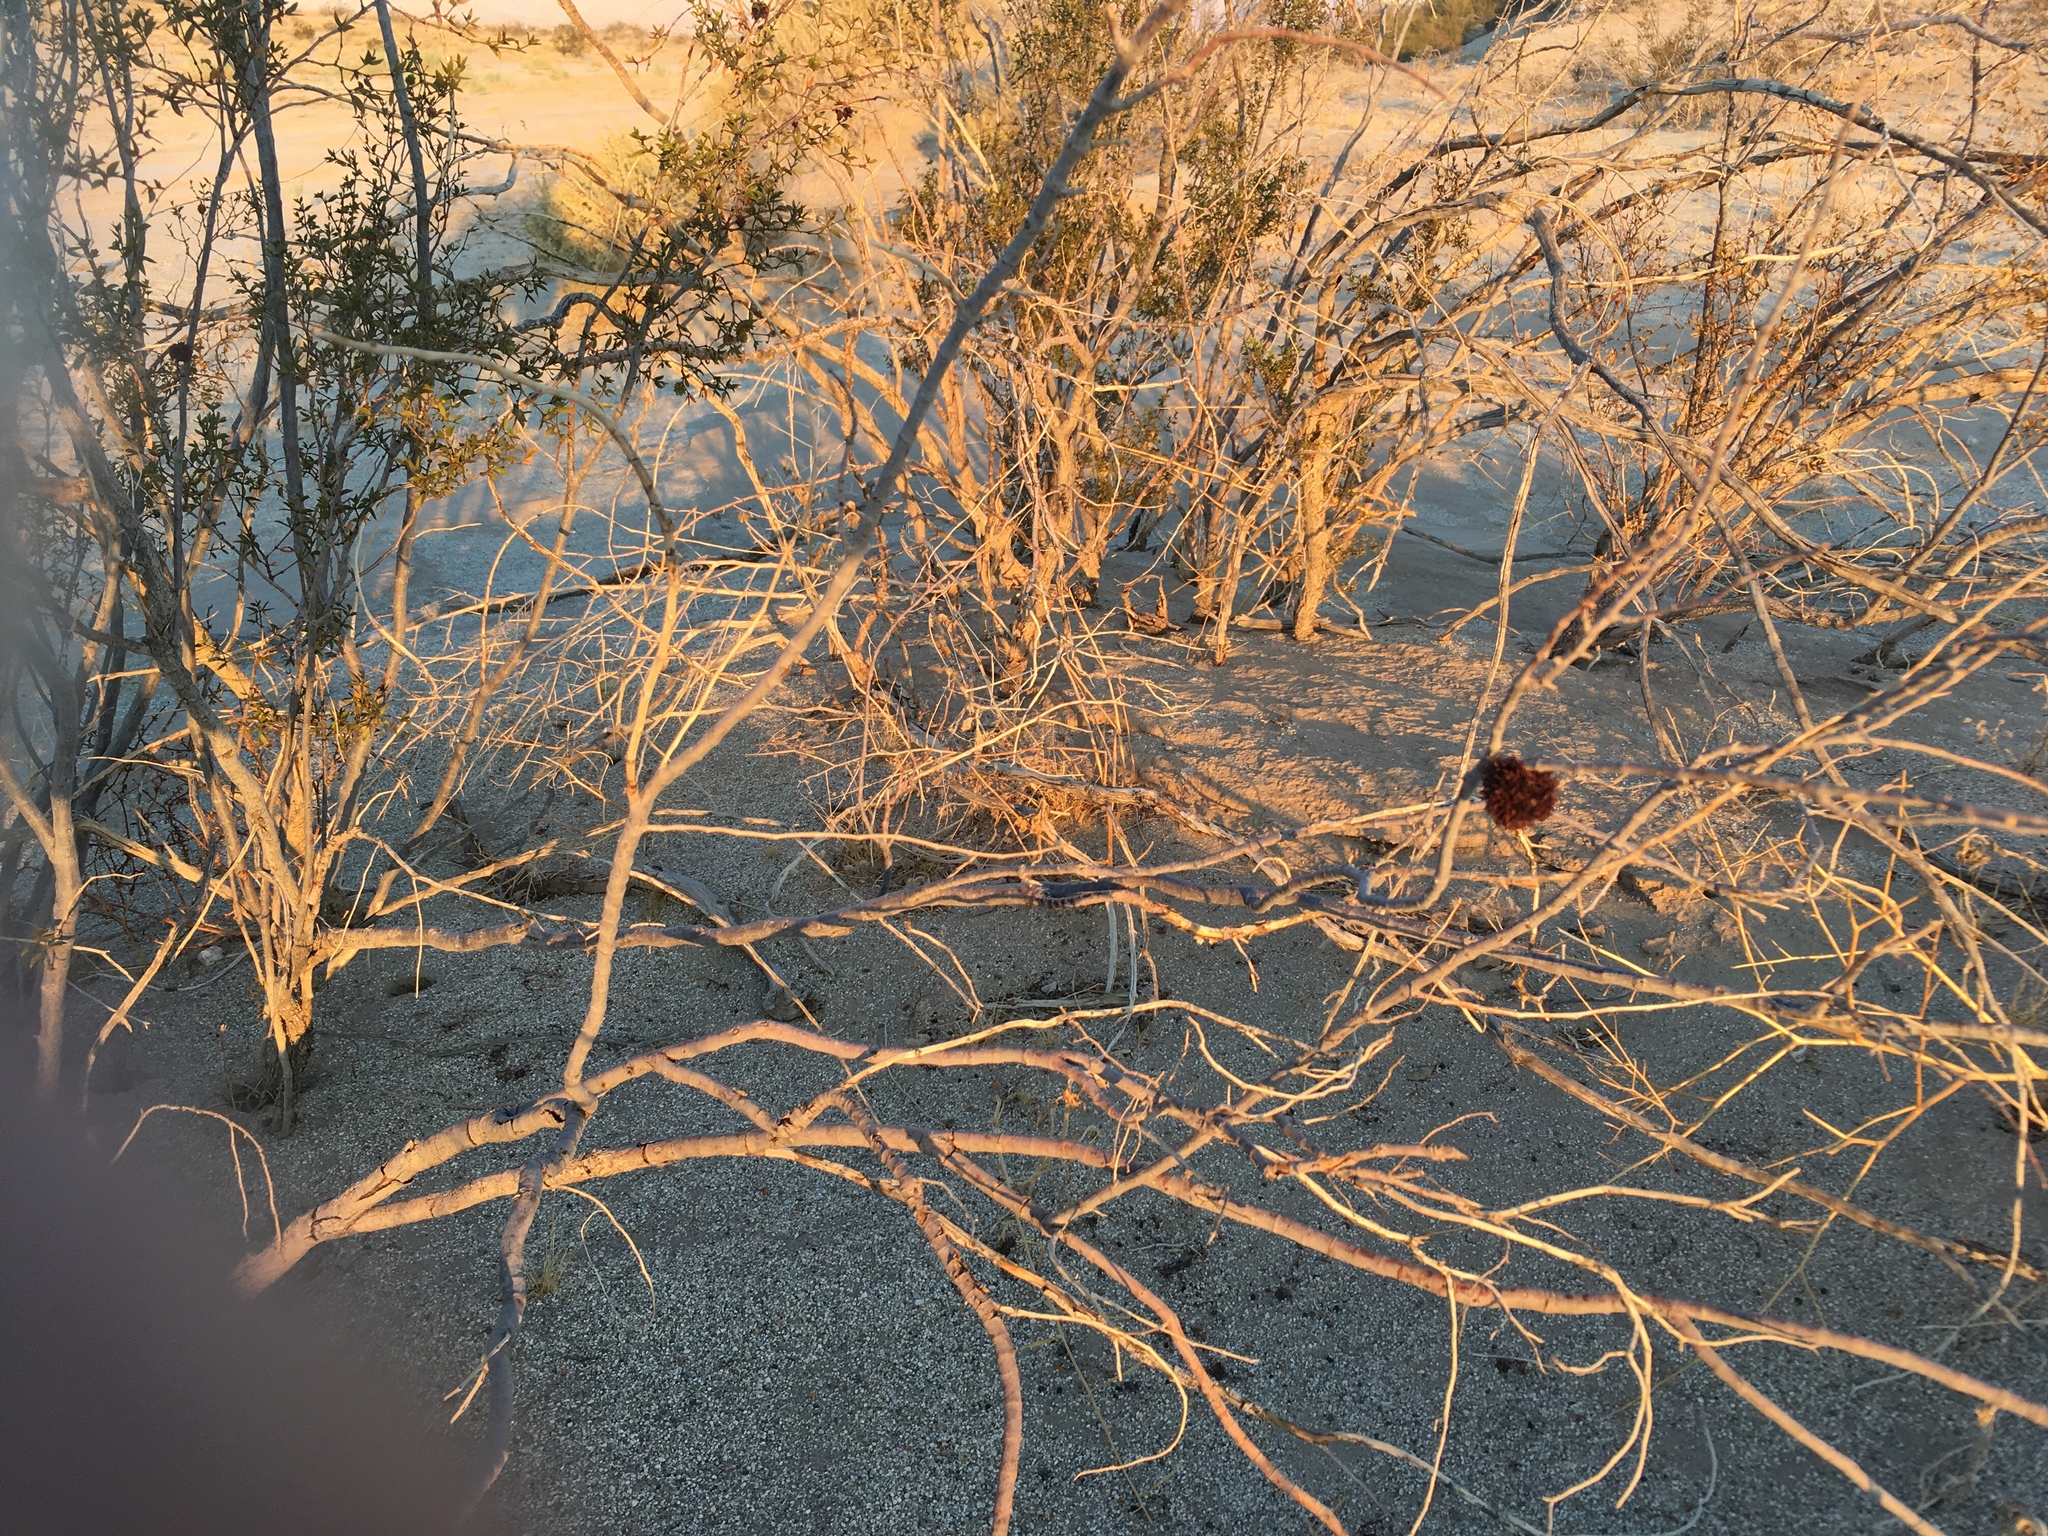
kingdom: Animalia
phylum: Arthropoda
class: Insecta
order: Diptera
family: Cecidomyiidae
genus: Asphondylia
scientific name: Asphondylia auripila
